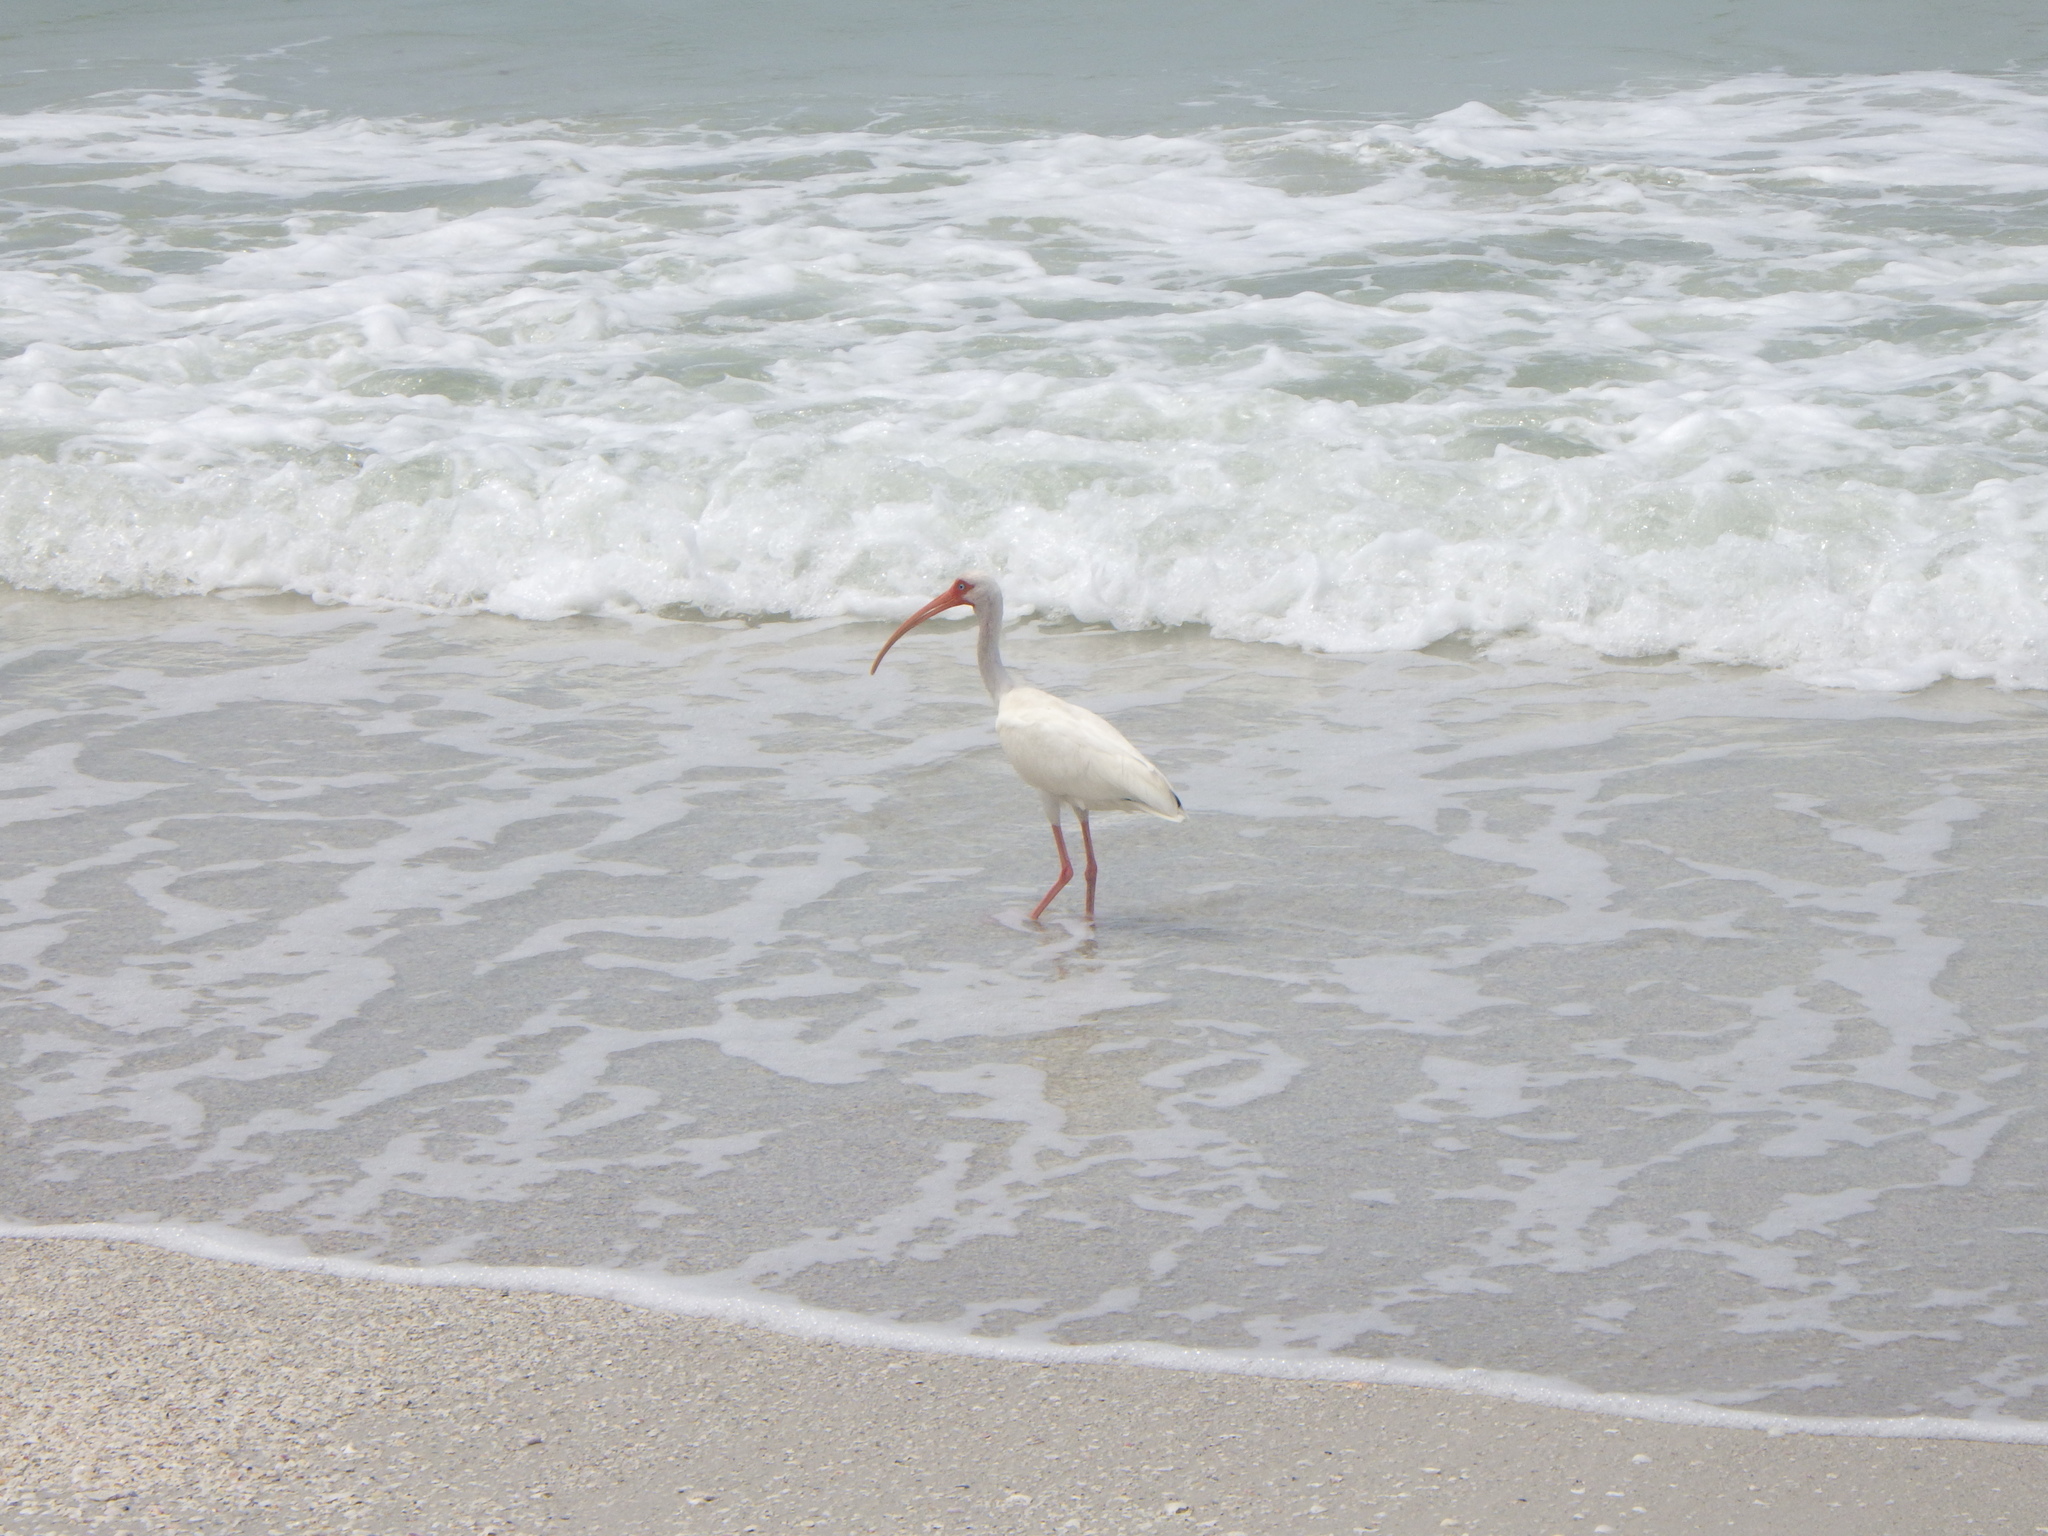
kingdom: Animalia
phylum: Chordata
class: Aves
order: Pelecaniformes
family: Threskiornithidae
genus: Eudocimus
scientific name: Eudocimus albus
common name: White ibis
